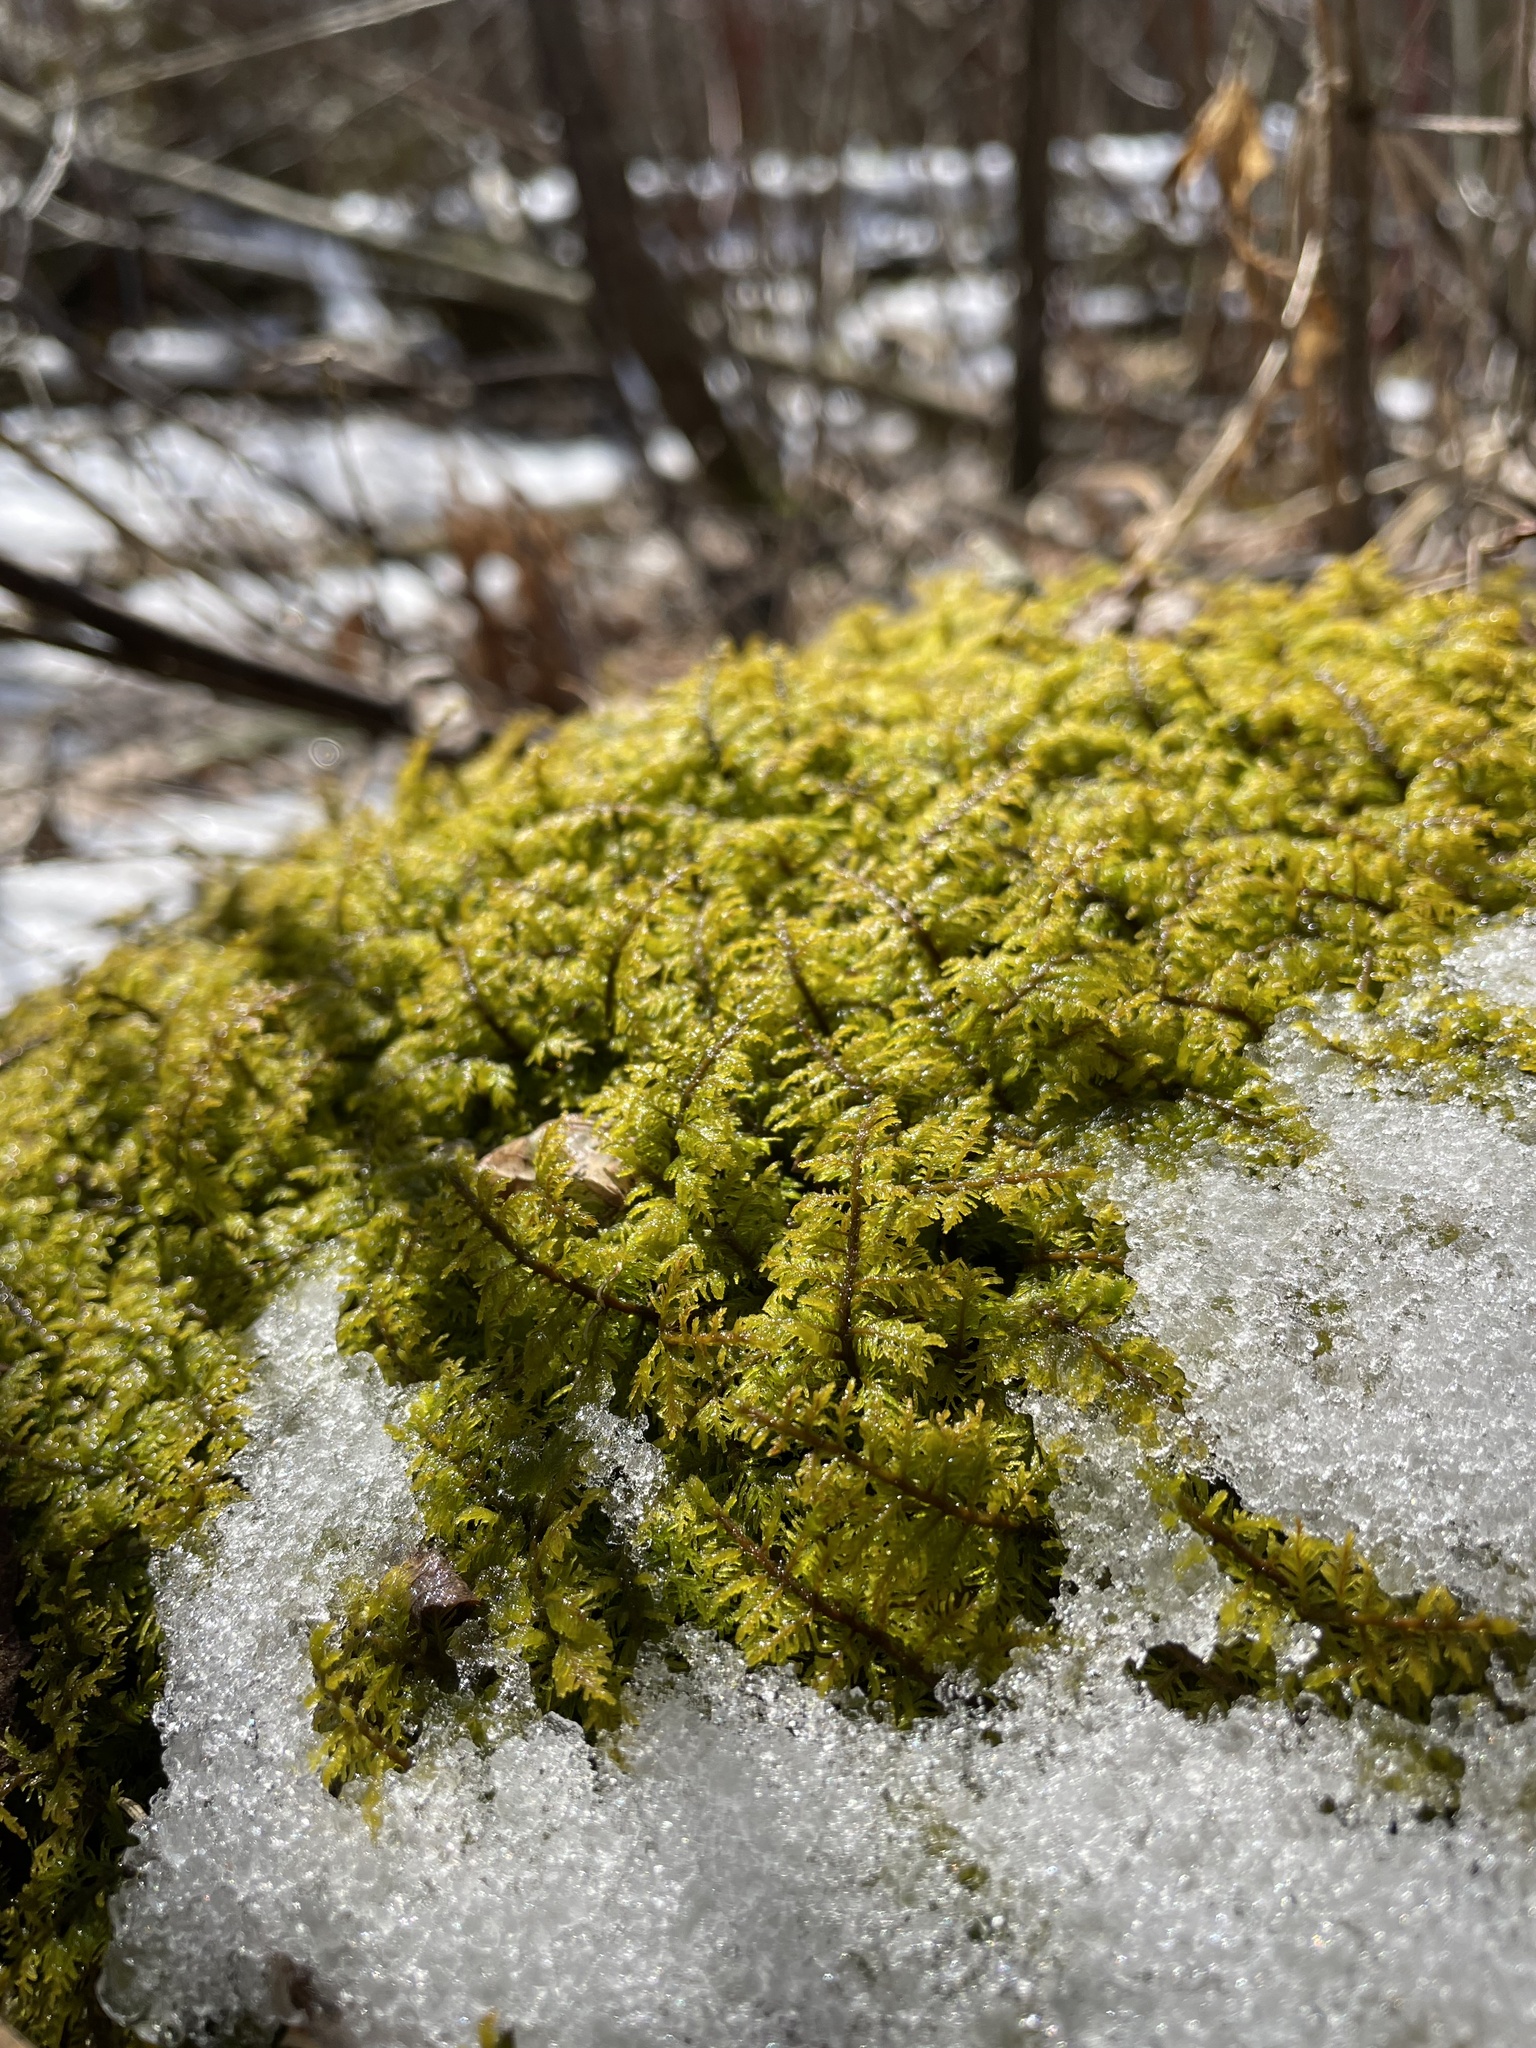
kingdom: Plantae
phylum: Bryophyta
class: Bryopsida
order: Hypnales
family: Thuidiaceae
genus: Thuidium
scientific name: Thuidium delicatulum
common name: Delicate fern moss
